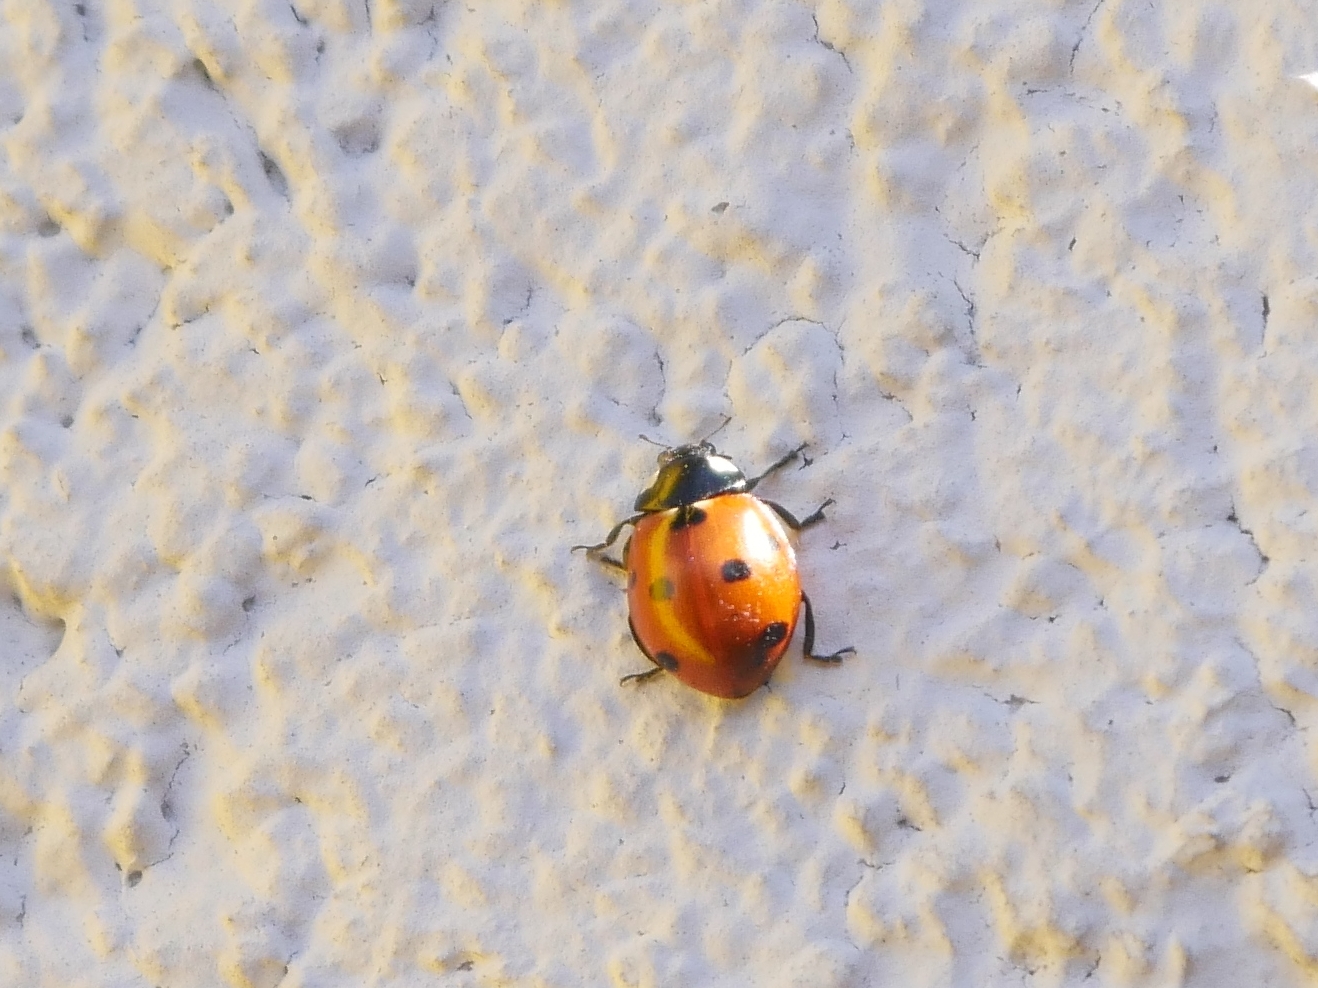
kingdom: Animalia
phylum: Arthropoda
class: Insecta
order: Coleoptera
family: Coccinellidae
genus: Coccinella
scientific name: Coccinella septempunctata
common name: Sevenspotted lady beetle
